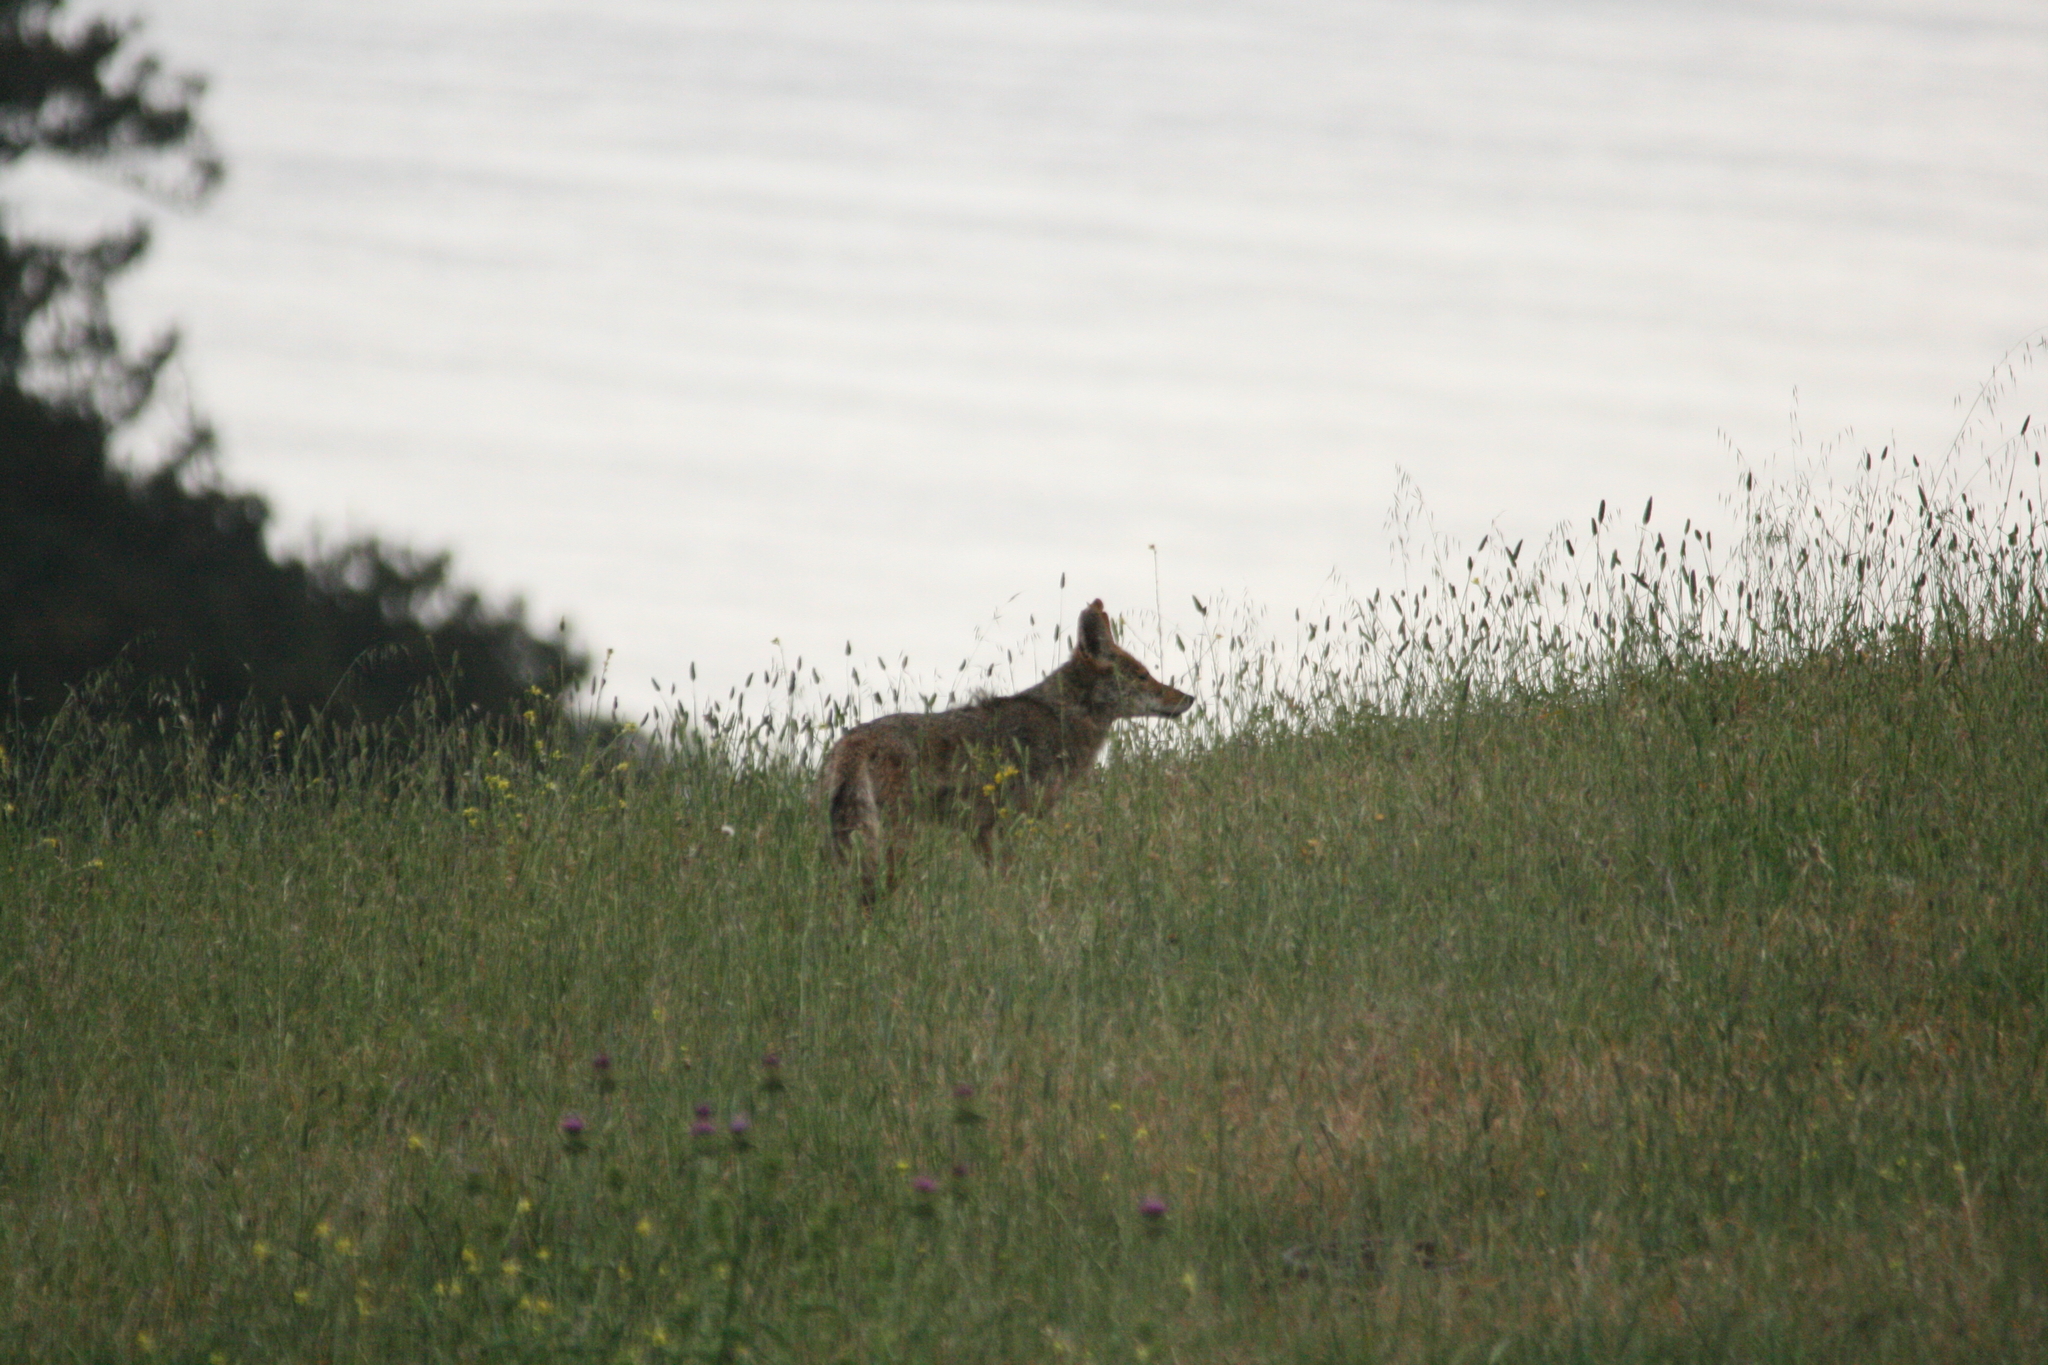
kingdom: Animalia
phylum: Chordata
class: Mammalia
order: Carnivora
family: Canidae
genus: Canis
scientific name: Canis latrans
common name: Coyote
